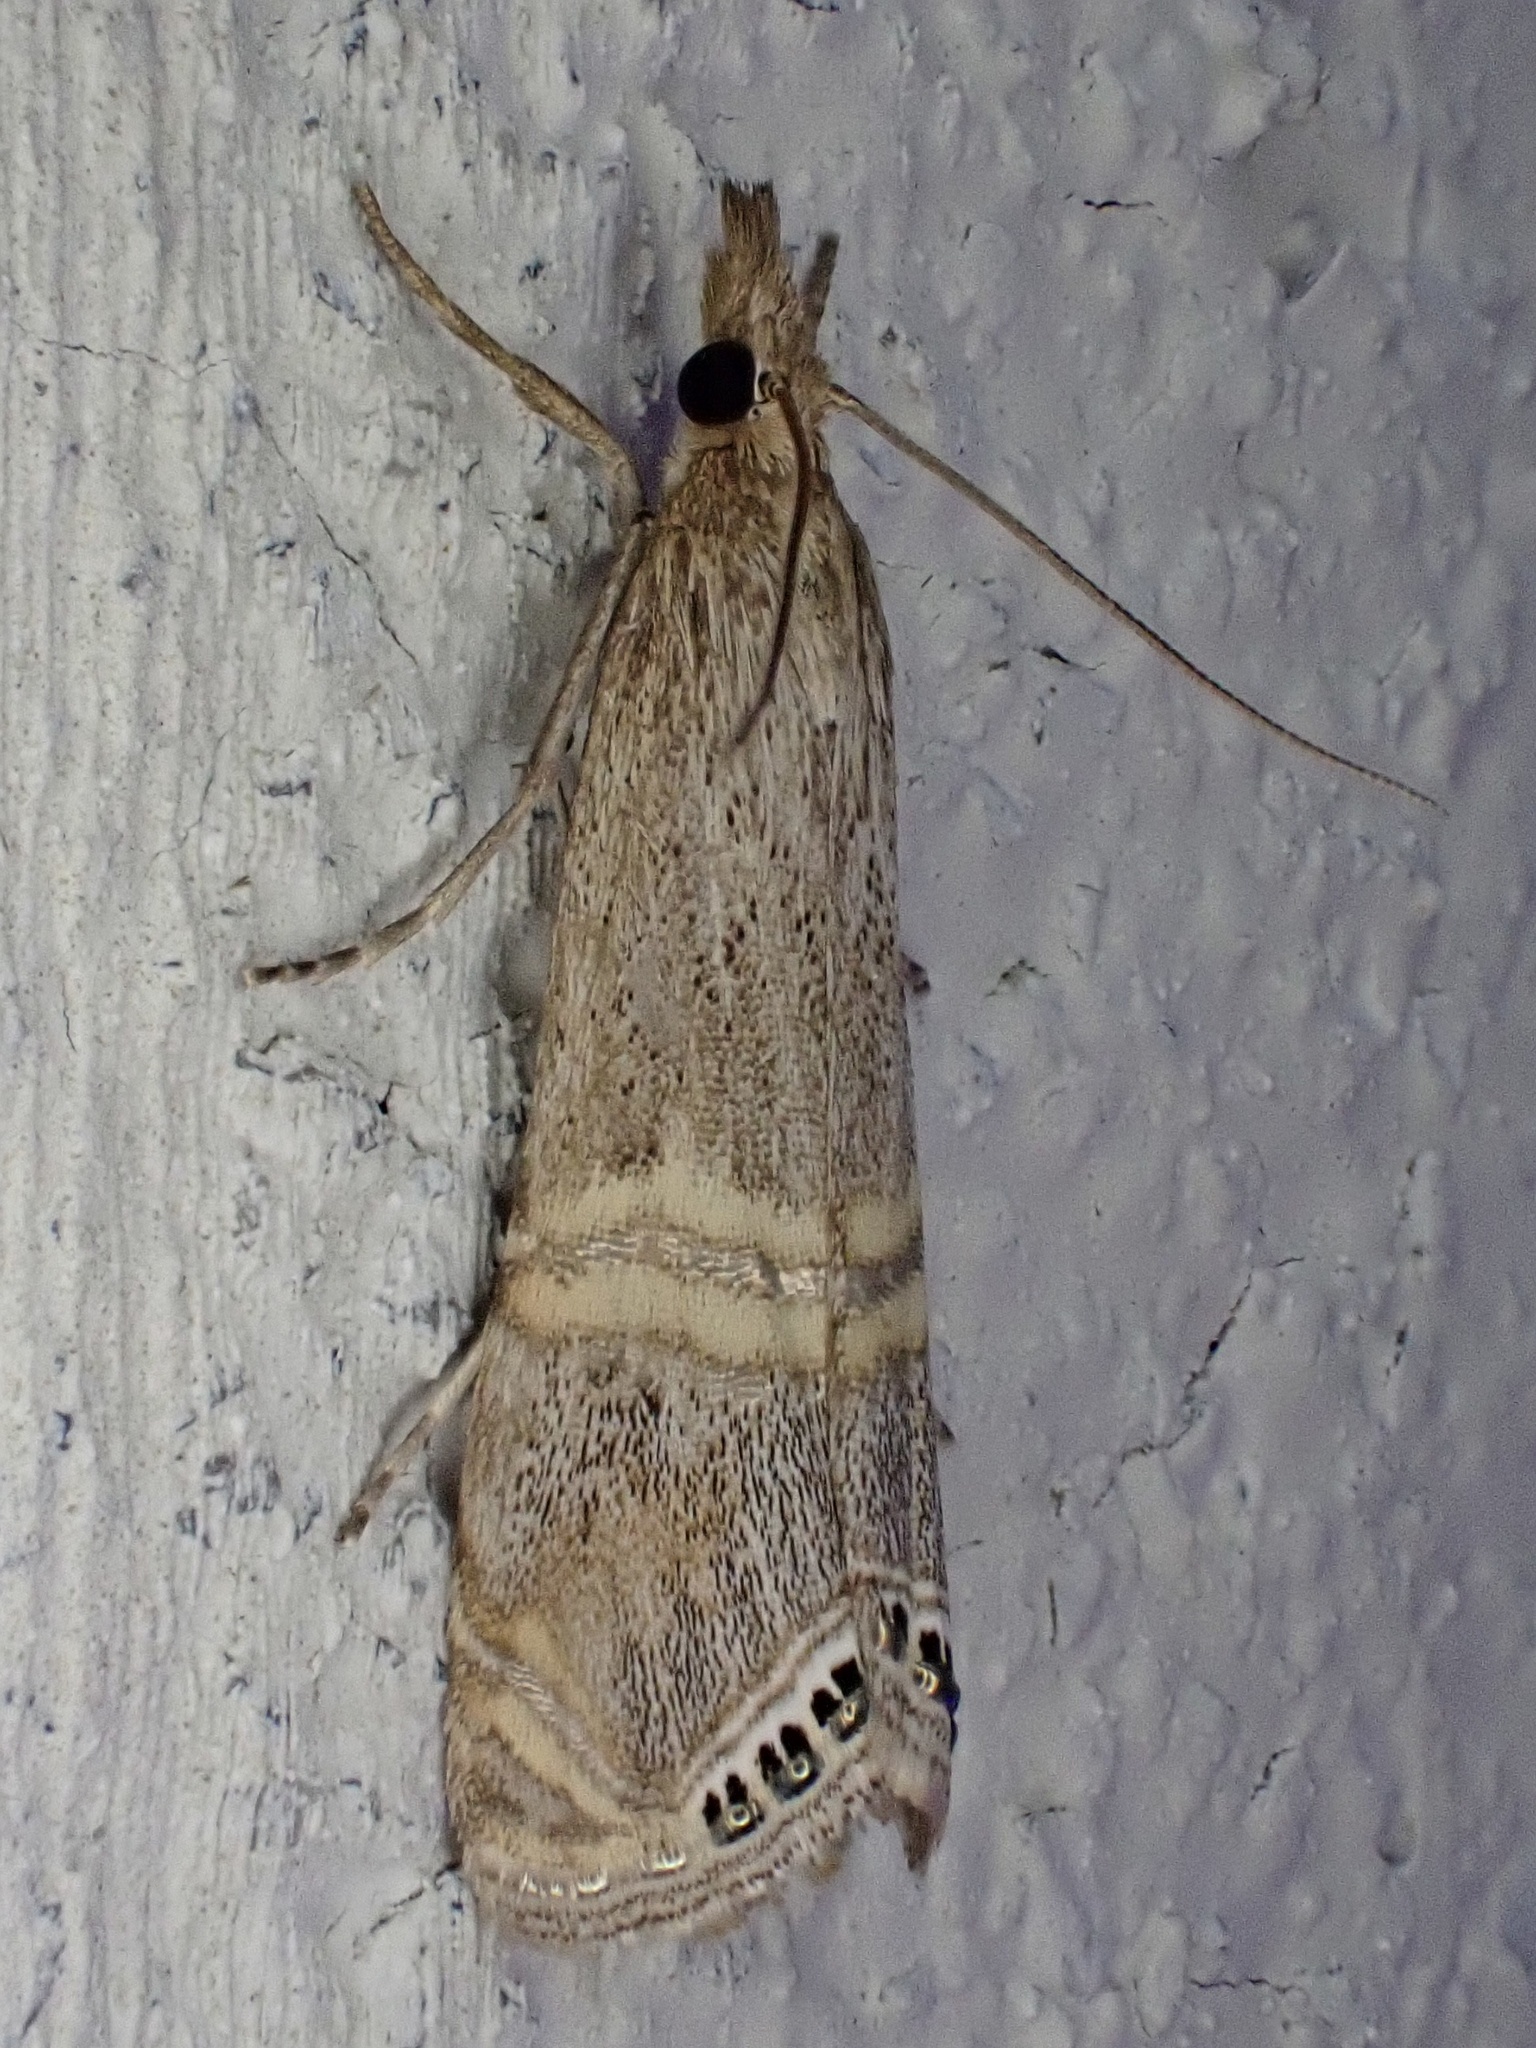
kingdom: Animalia
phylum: Arthropoda
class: Insecta
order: Lepidoptera
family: Crambidae
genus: Euchromius
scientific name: Euchromius ocellea
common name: Necklace veneer moth
